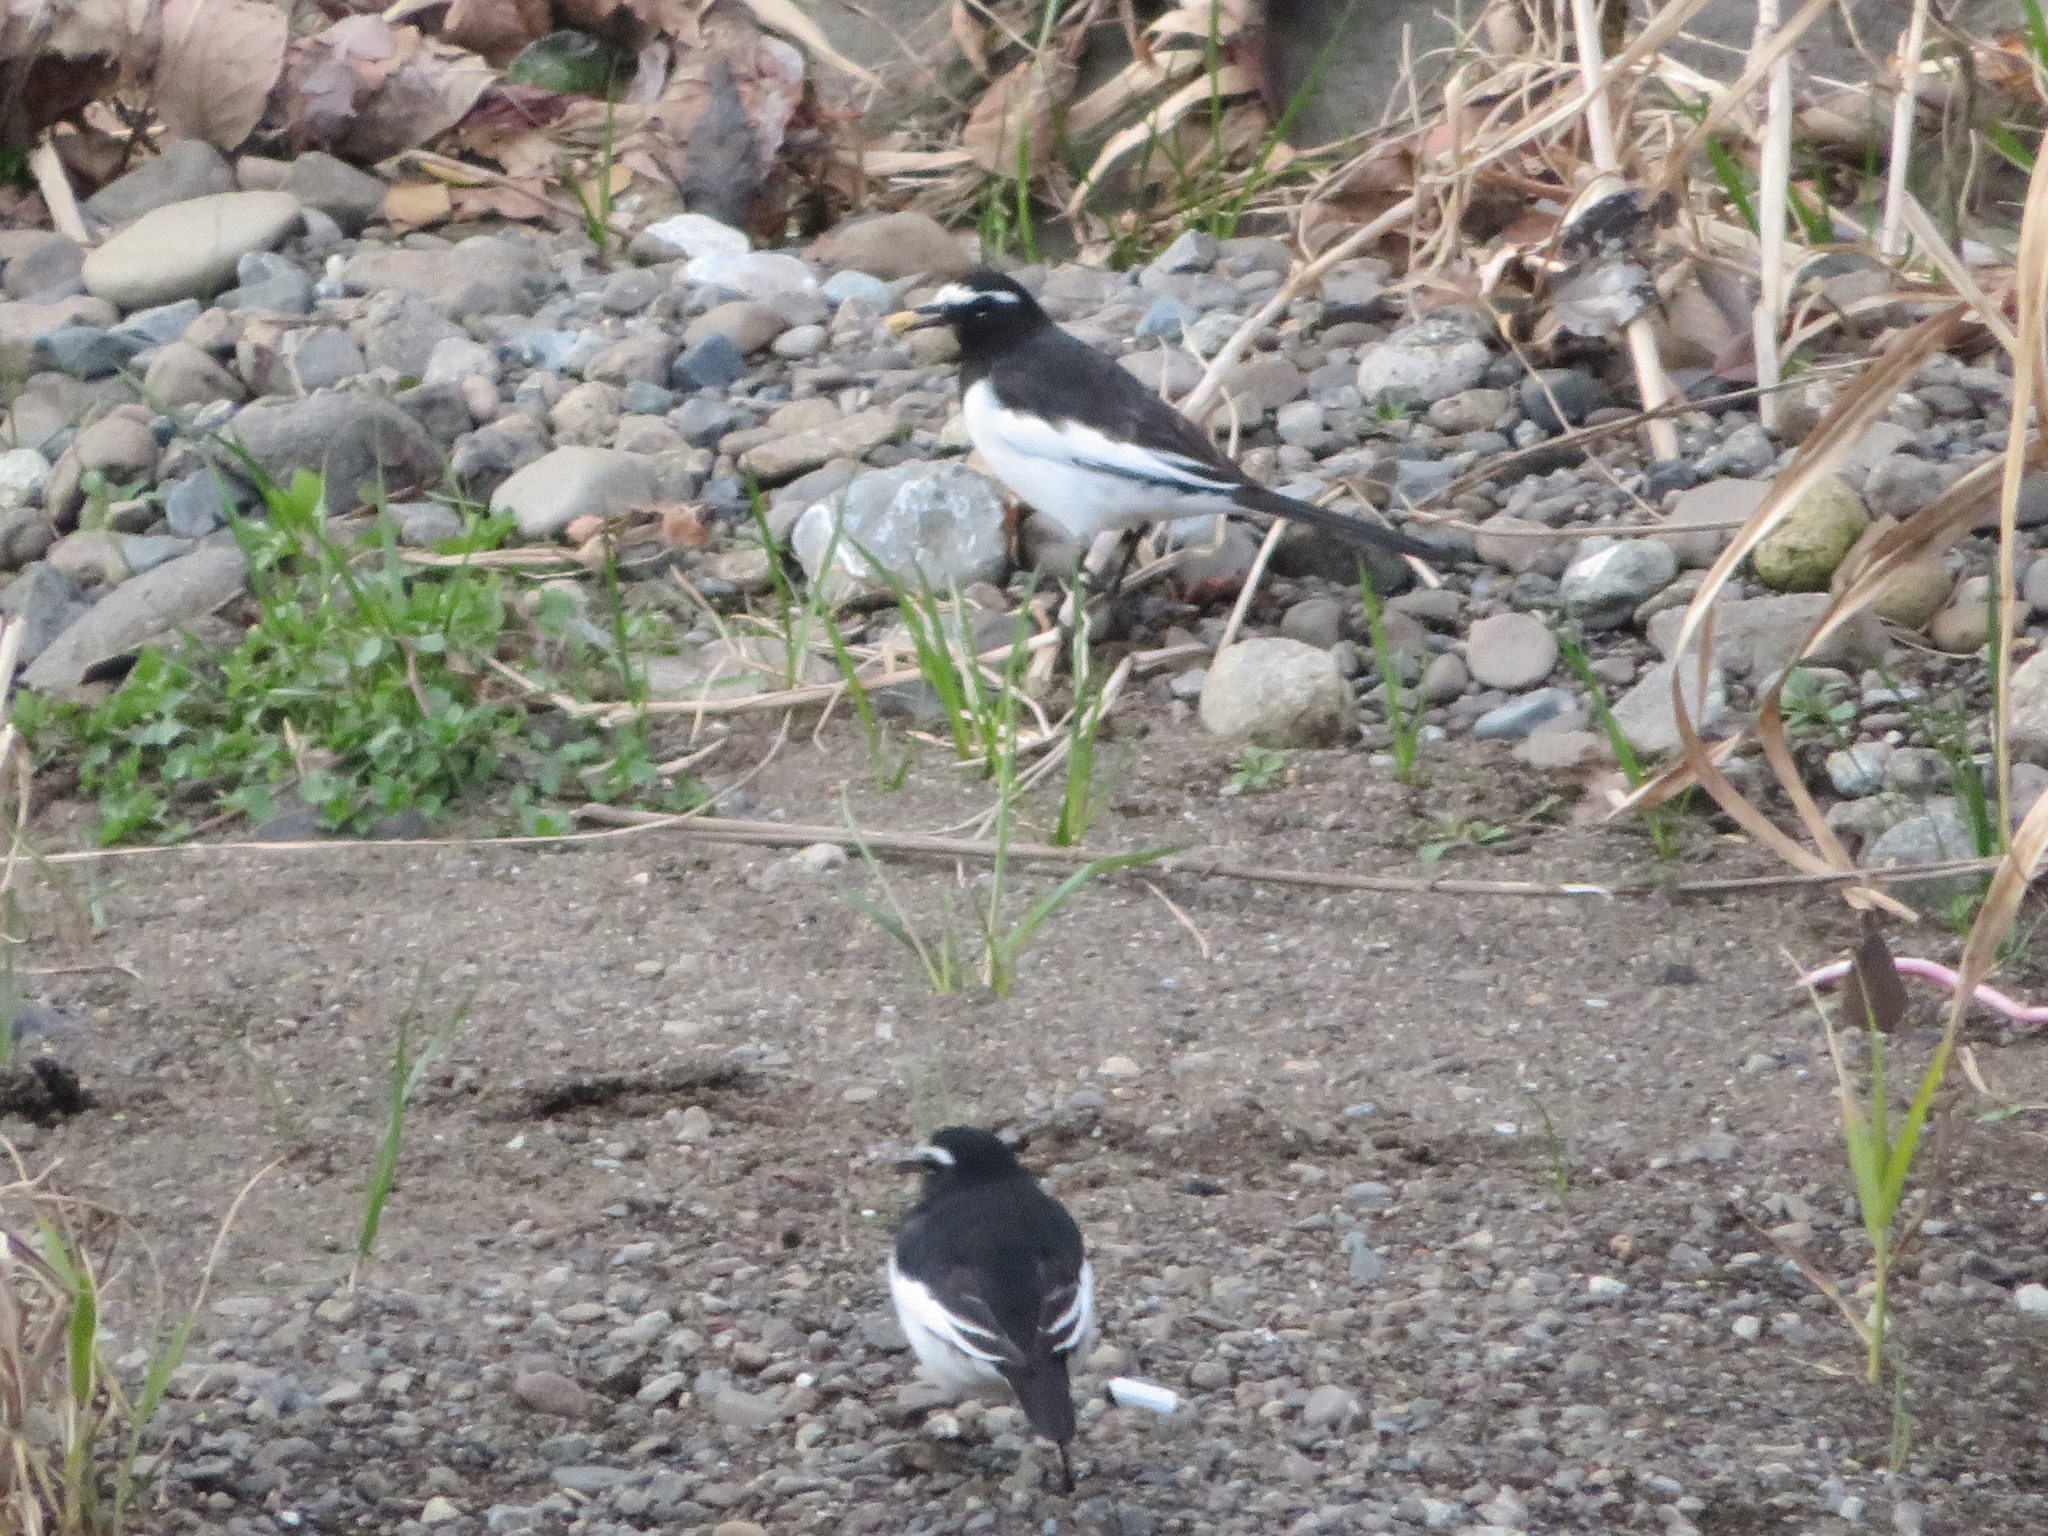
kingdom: Animalia
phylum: Chordata
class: Aves
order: Passeriformes
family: Motacillidae
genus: Motacilla
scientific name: Motacilla grandis
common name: Japanese wagtail
